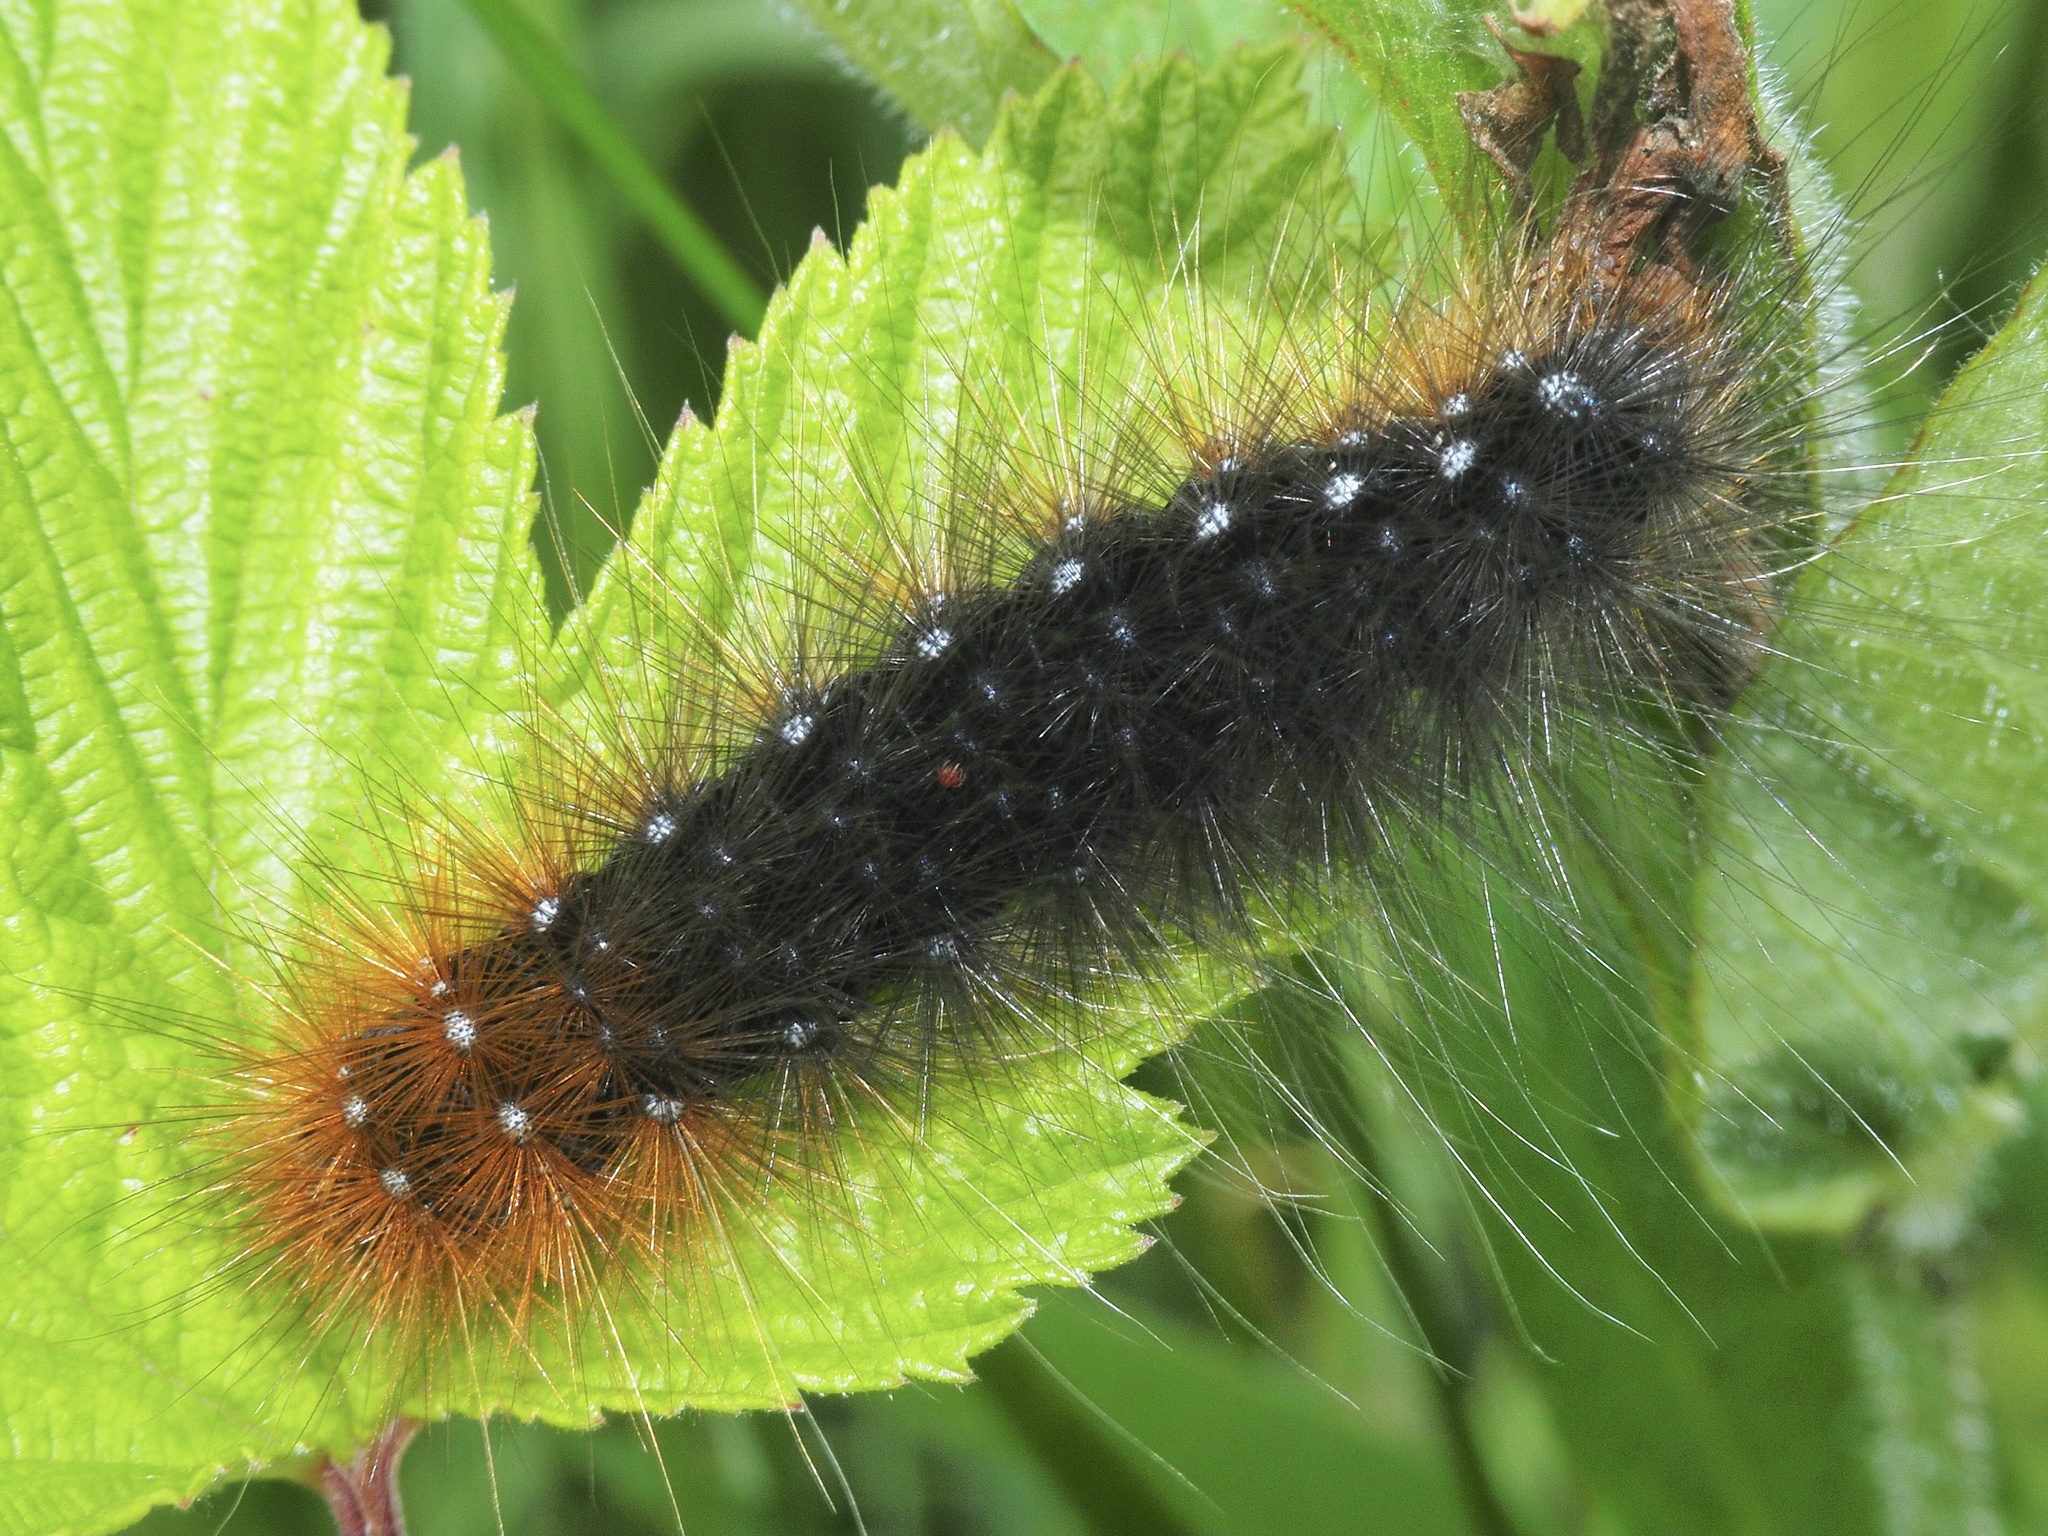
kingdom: Animalia
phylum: Arthropoda
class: Insecta
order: Lepidoptera
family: Erebidae
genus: Arctia
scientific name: Arctia caja
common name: Garden tiger
